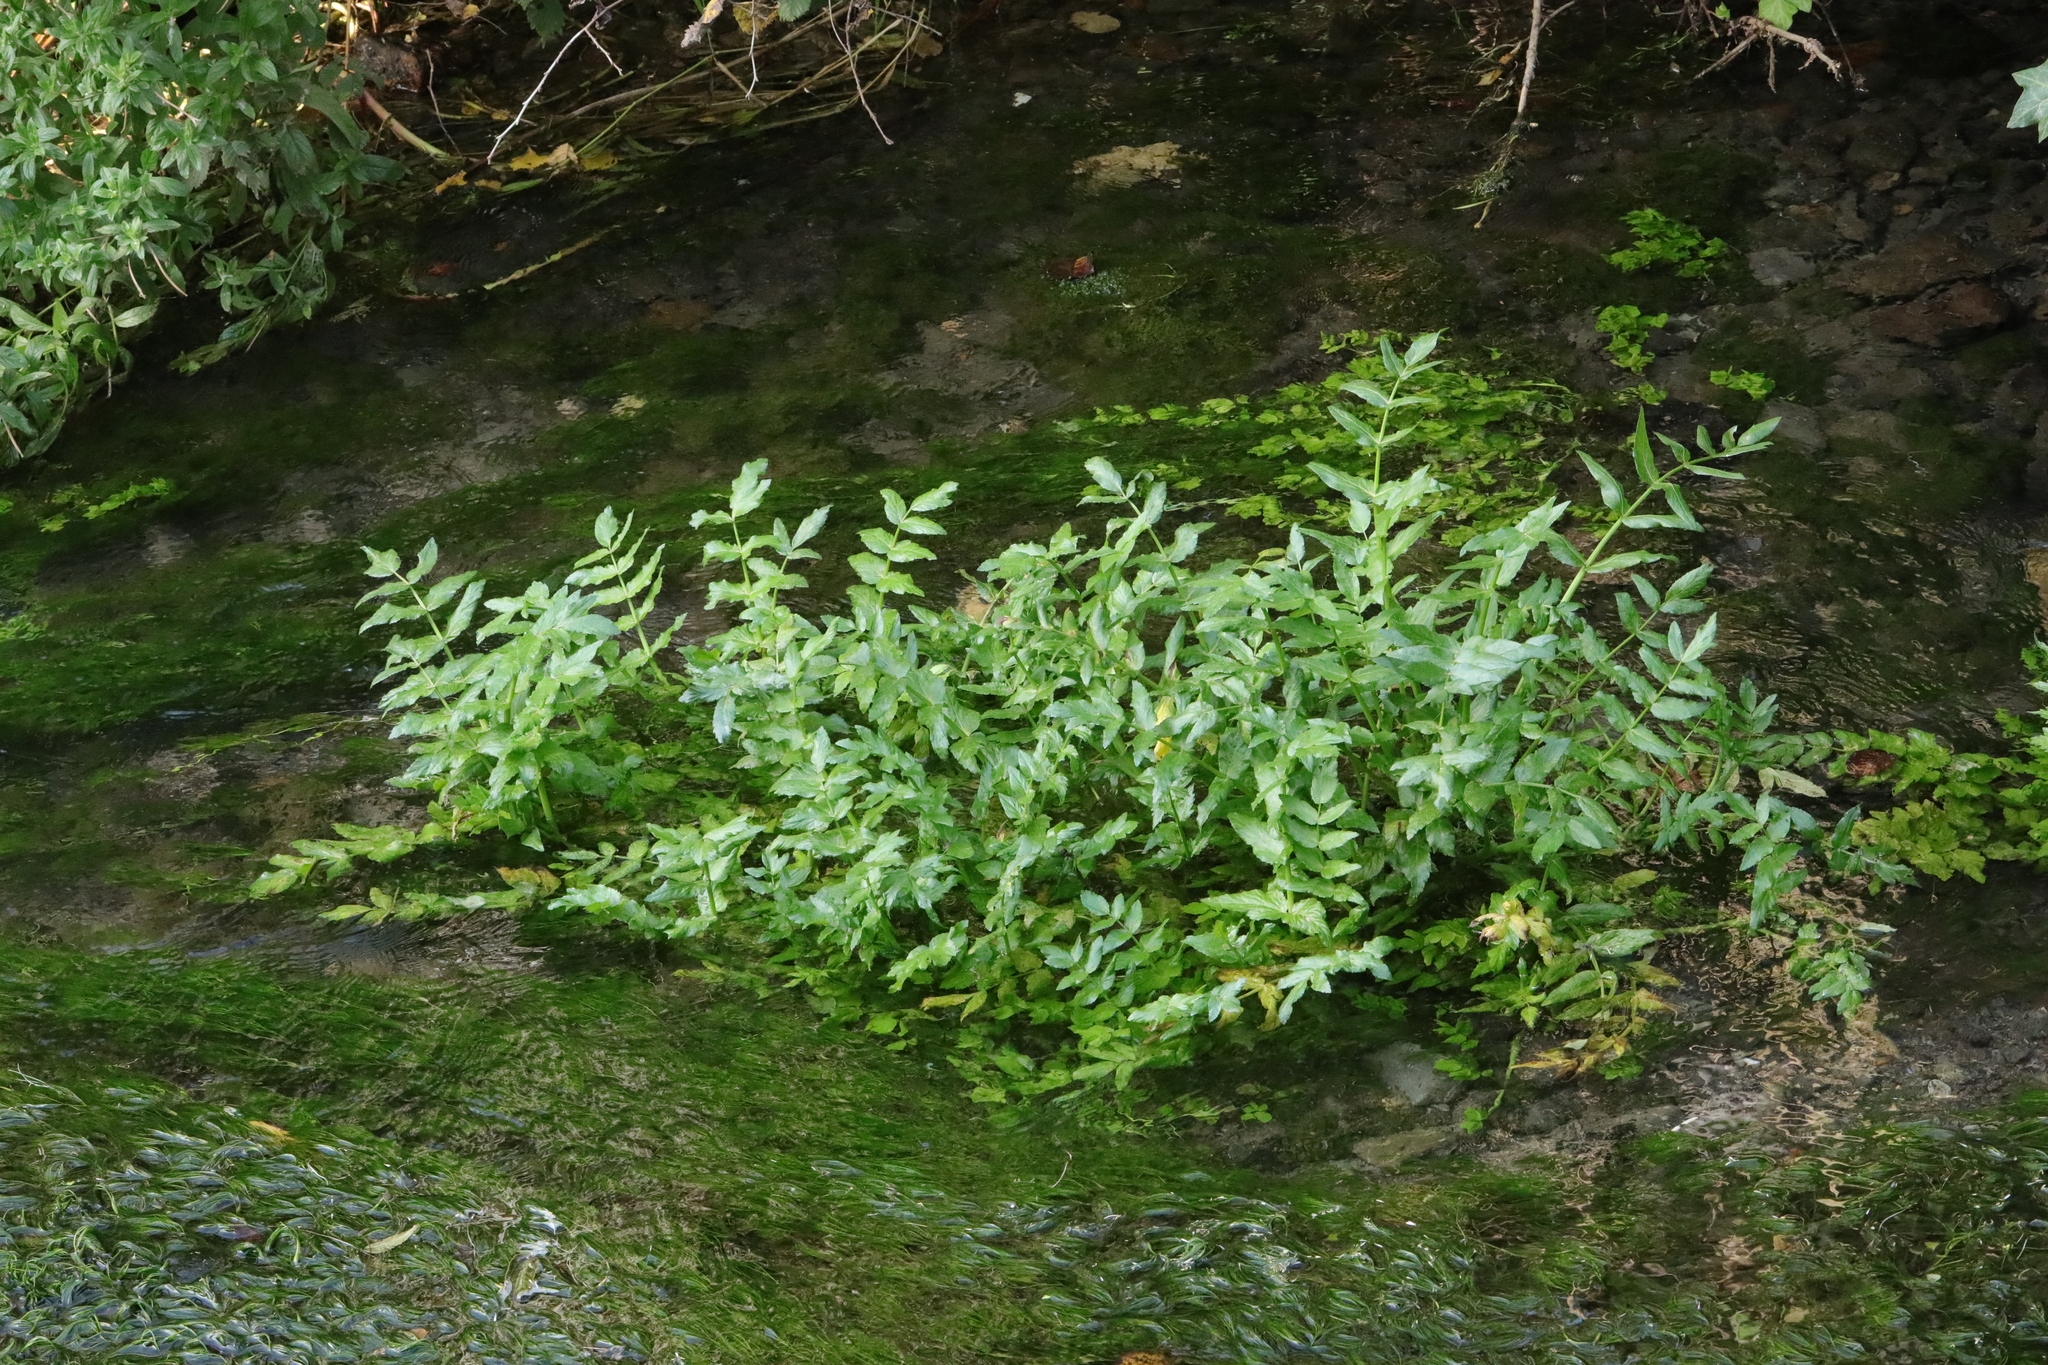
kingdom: Plantae
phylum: Tracheophyta
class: Magnoliopsida
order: Apiales
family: Apiaceae
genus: Helosciadium
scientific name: Helosciadium nodiflorum
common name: Fool's-watercress
